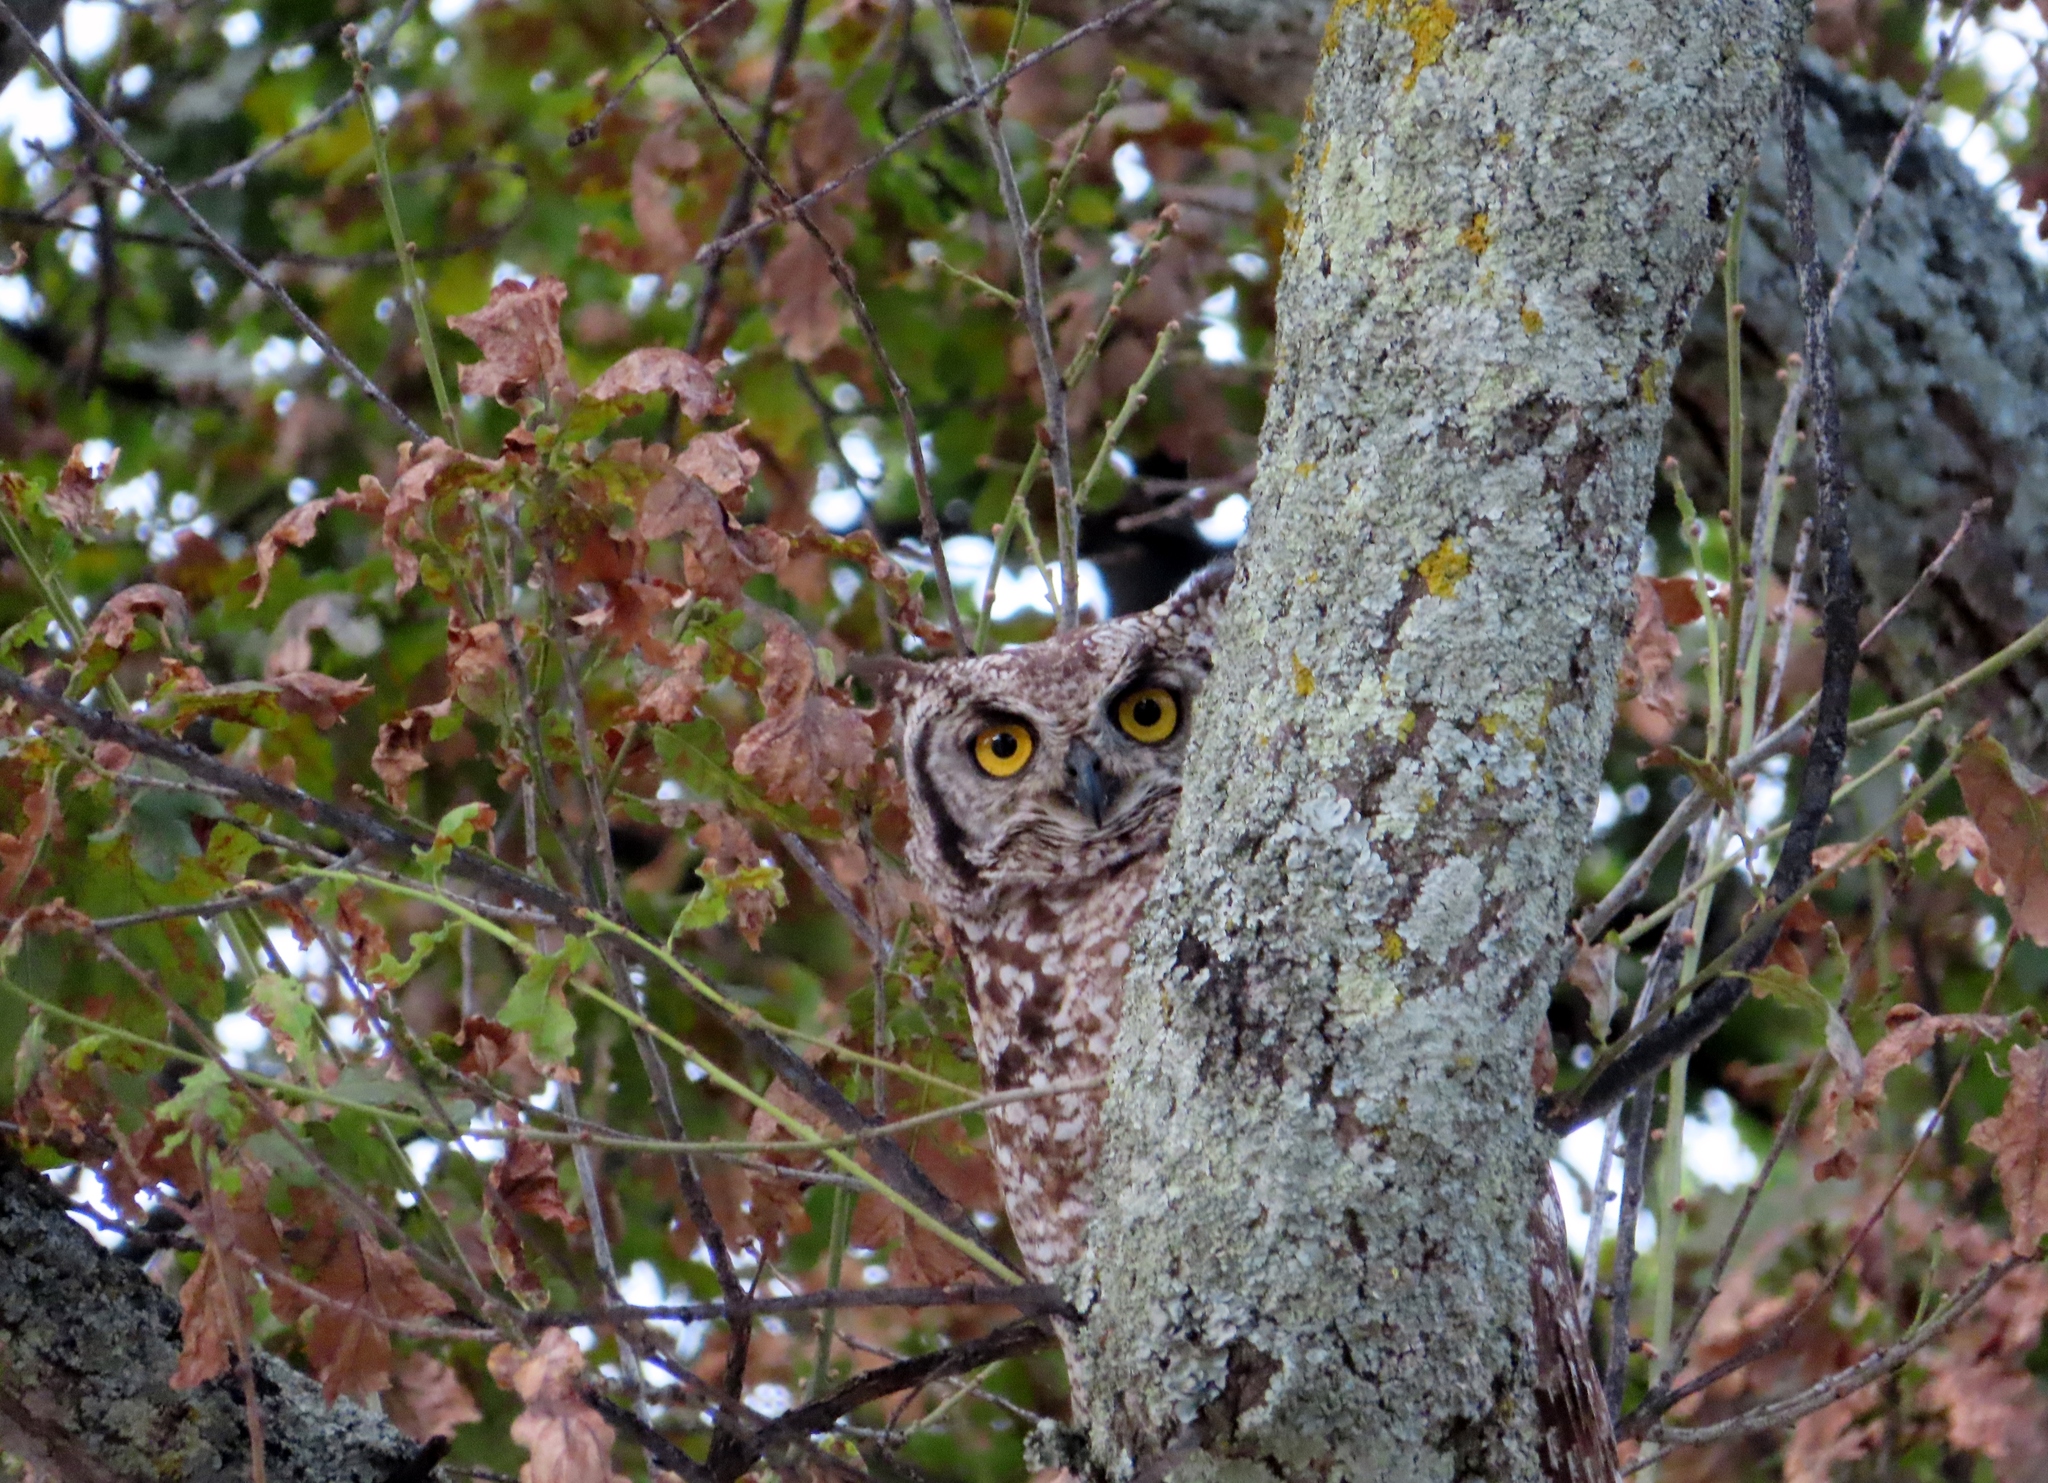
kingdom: Animalia
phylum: Chordata
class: Aves
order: Strigiformes
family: Strigidae
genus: Bubo
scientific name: Bubo africanus
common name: Spotted eagle-owl
